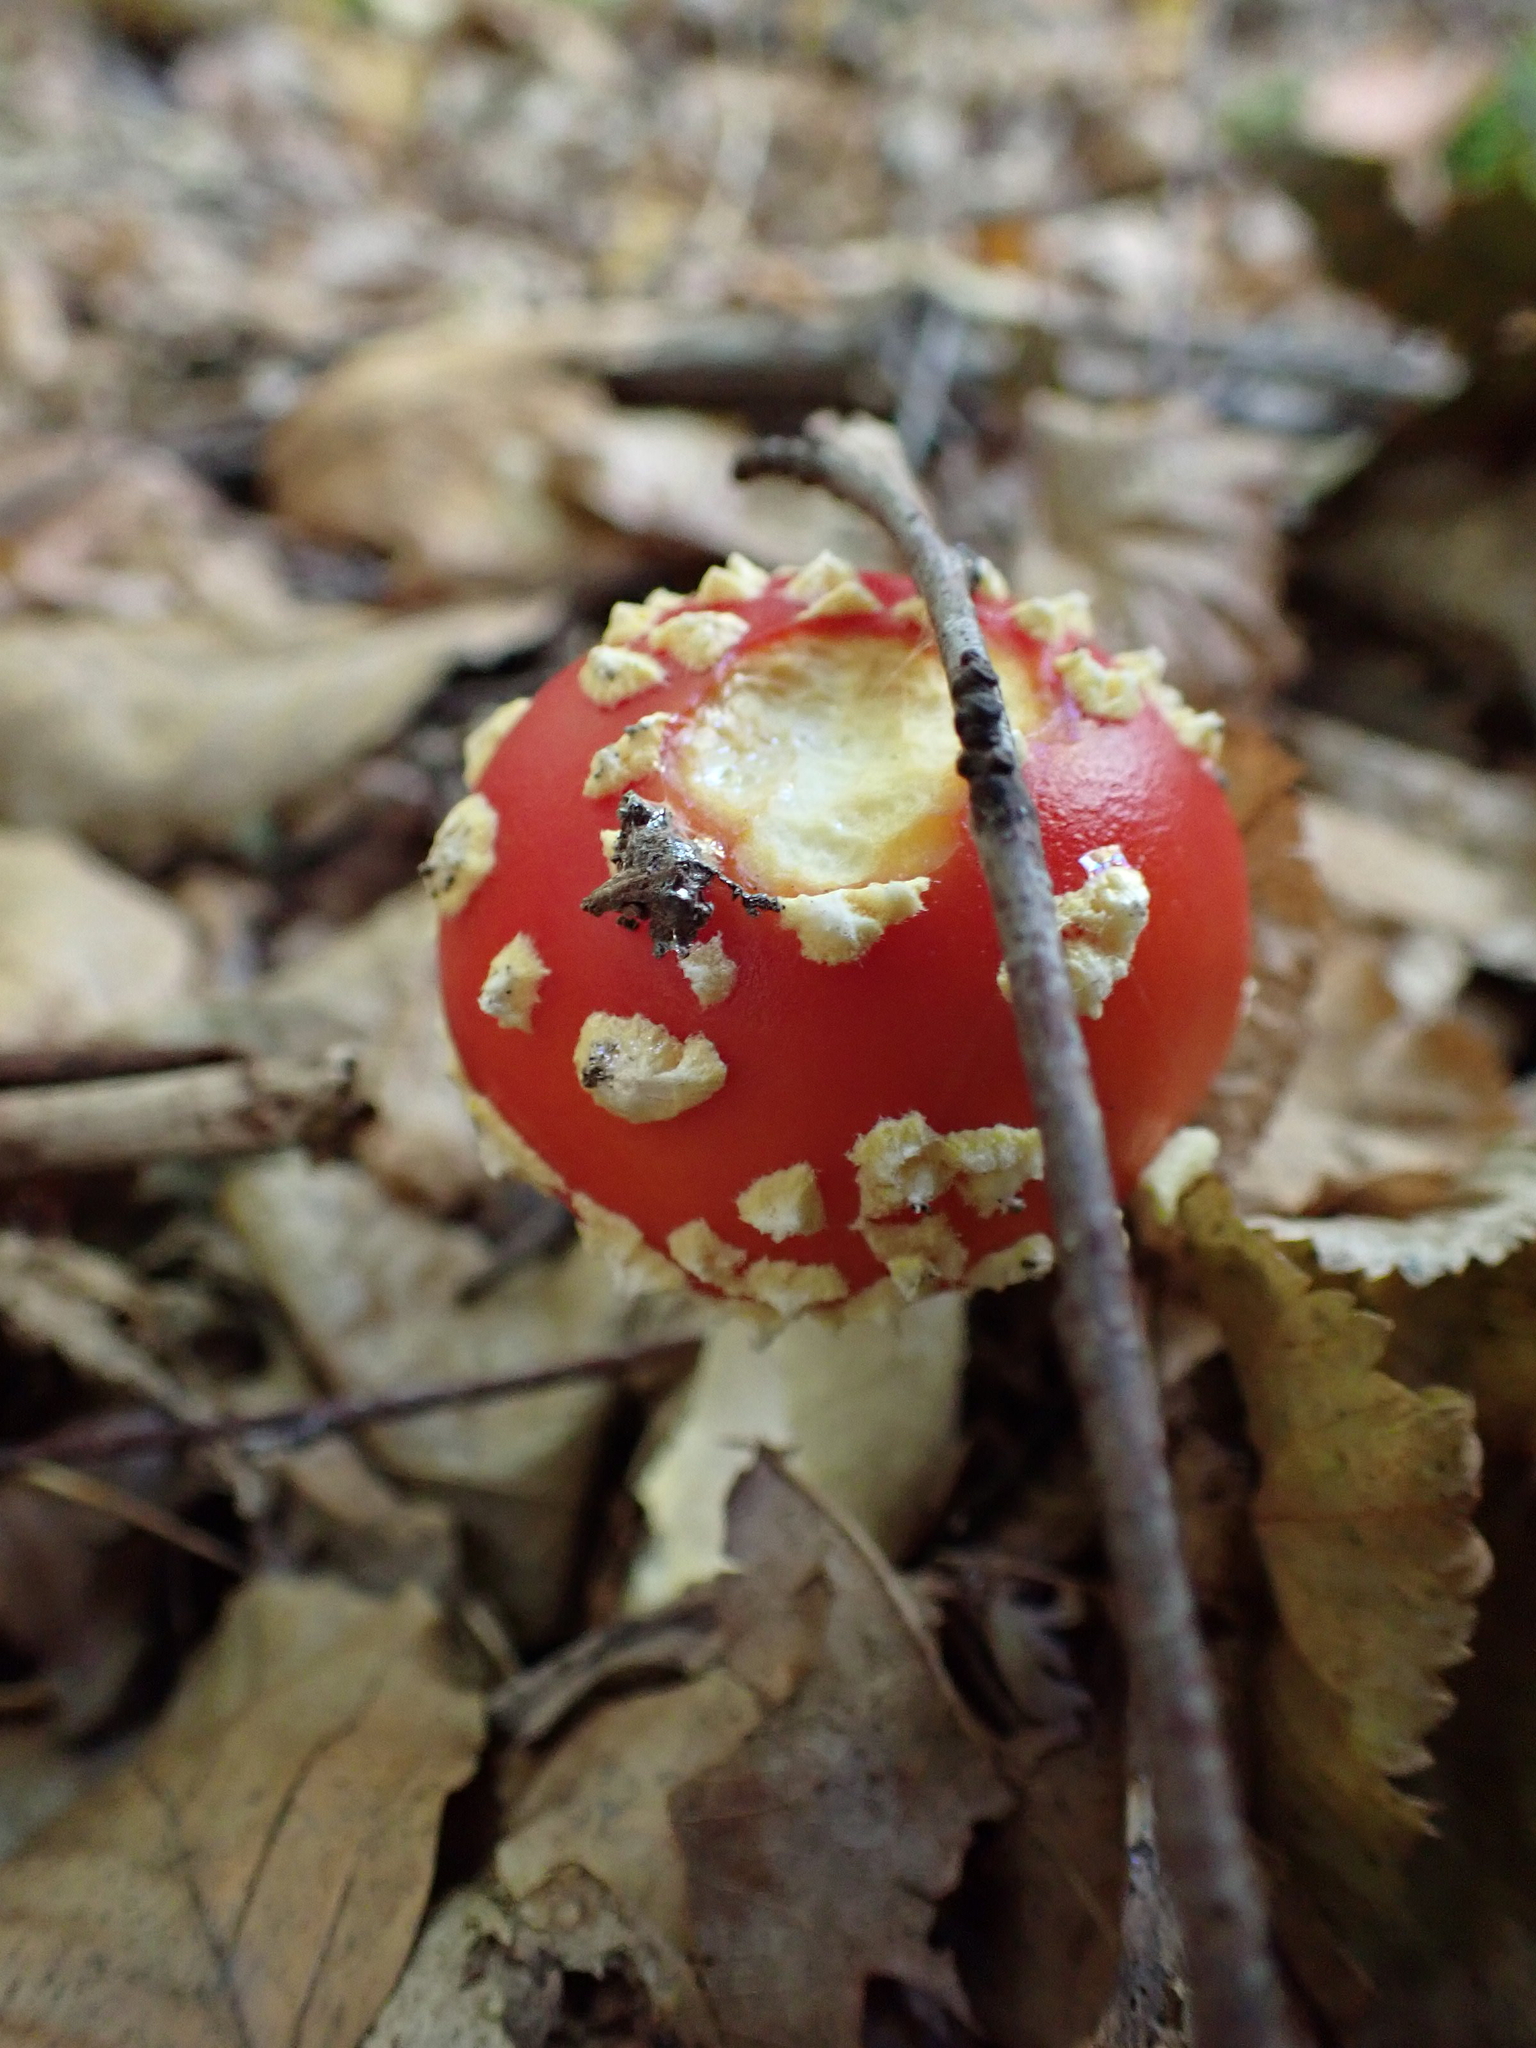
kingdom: Fungi
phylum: Basidiomycota
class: Agaricomycetes
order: Agaricales
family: Amanitaceae
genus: Amanita
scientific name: Amanita muscaria
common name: Fly agaric
